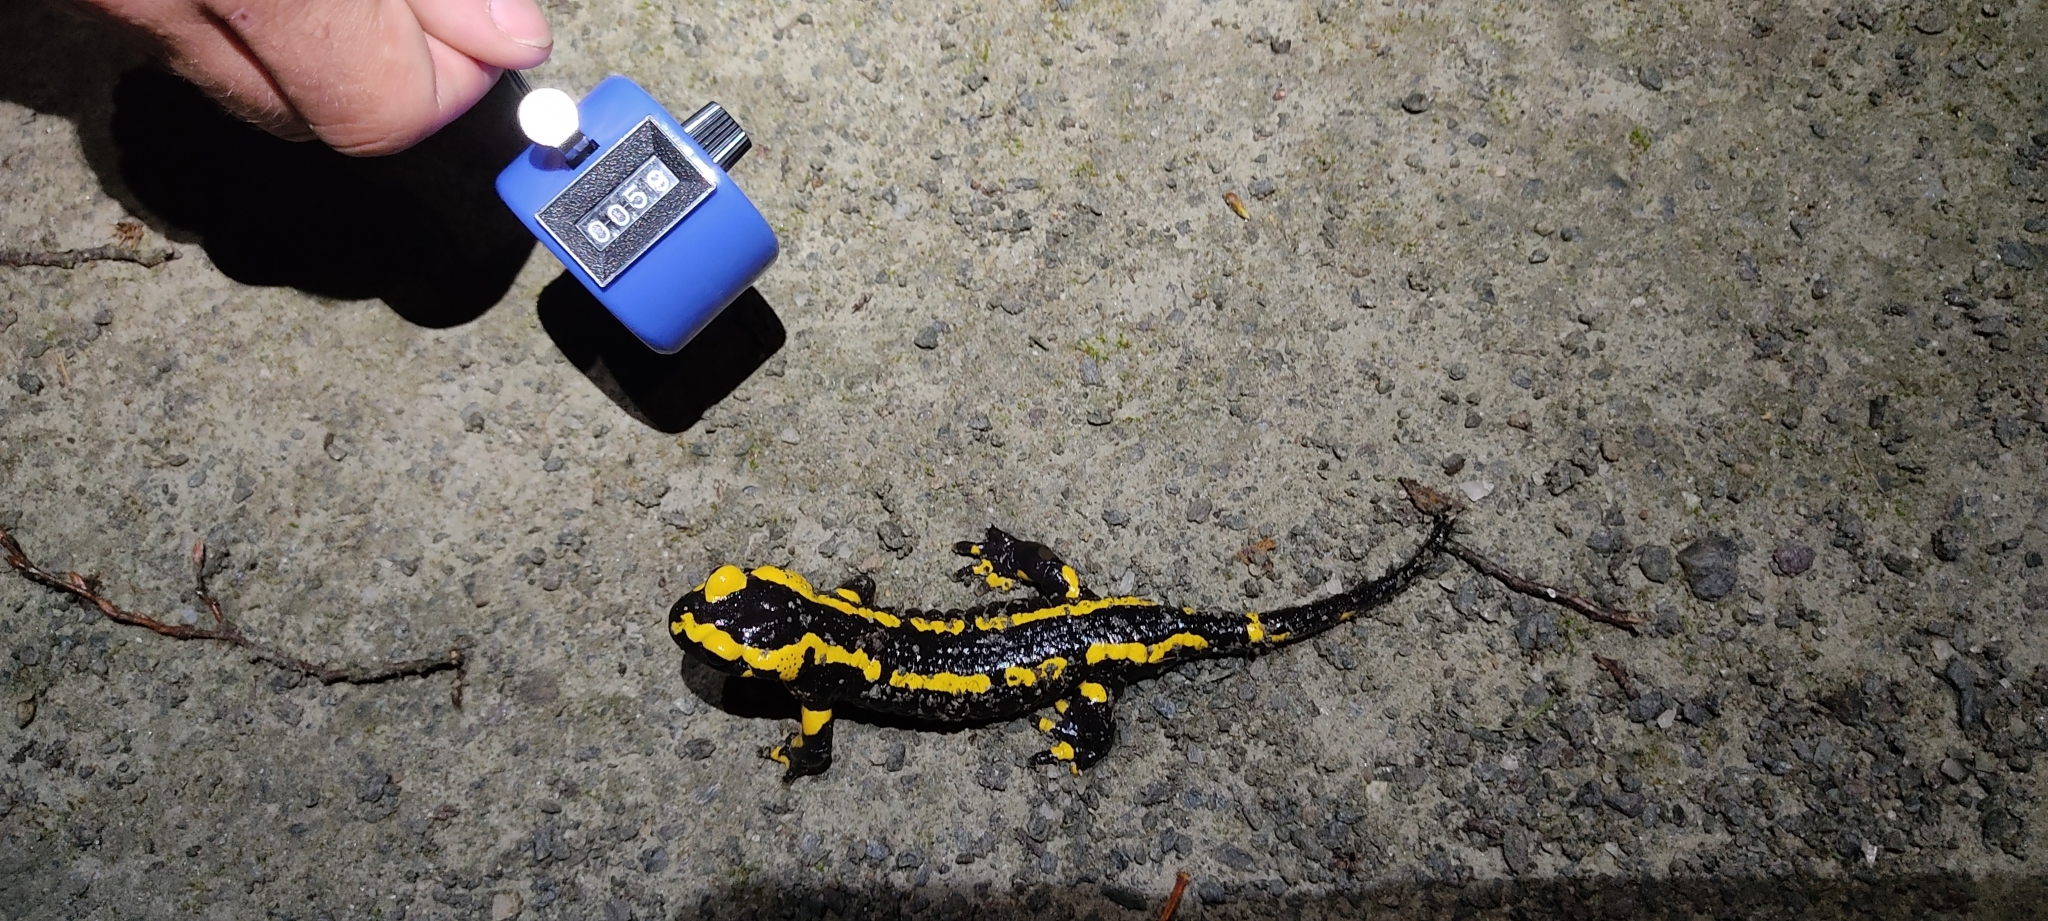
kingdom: Animalia
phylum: Chordata
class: Amphibia
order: Caudata
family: Salamandridae
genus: Salamandra
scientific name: Salamandra salamandra
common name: Fire salamander
